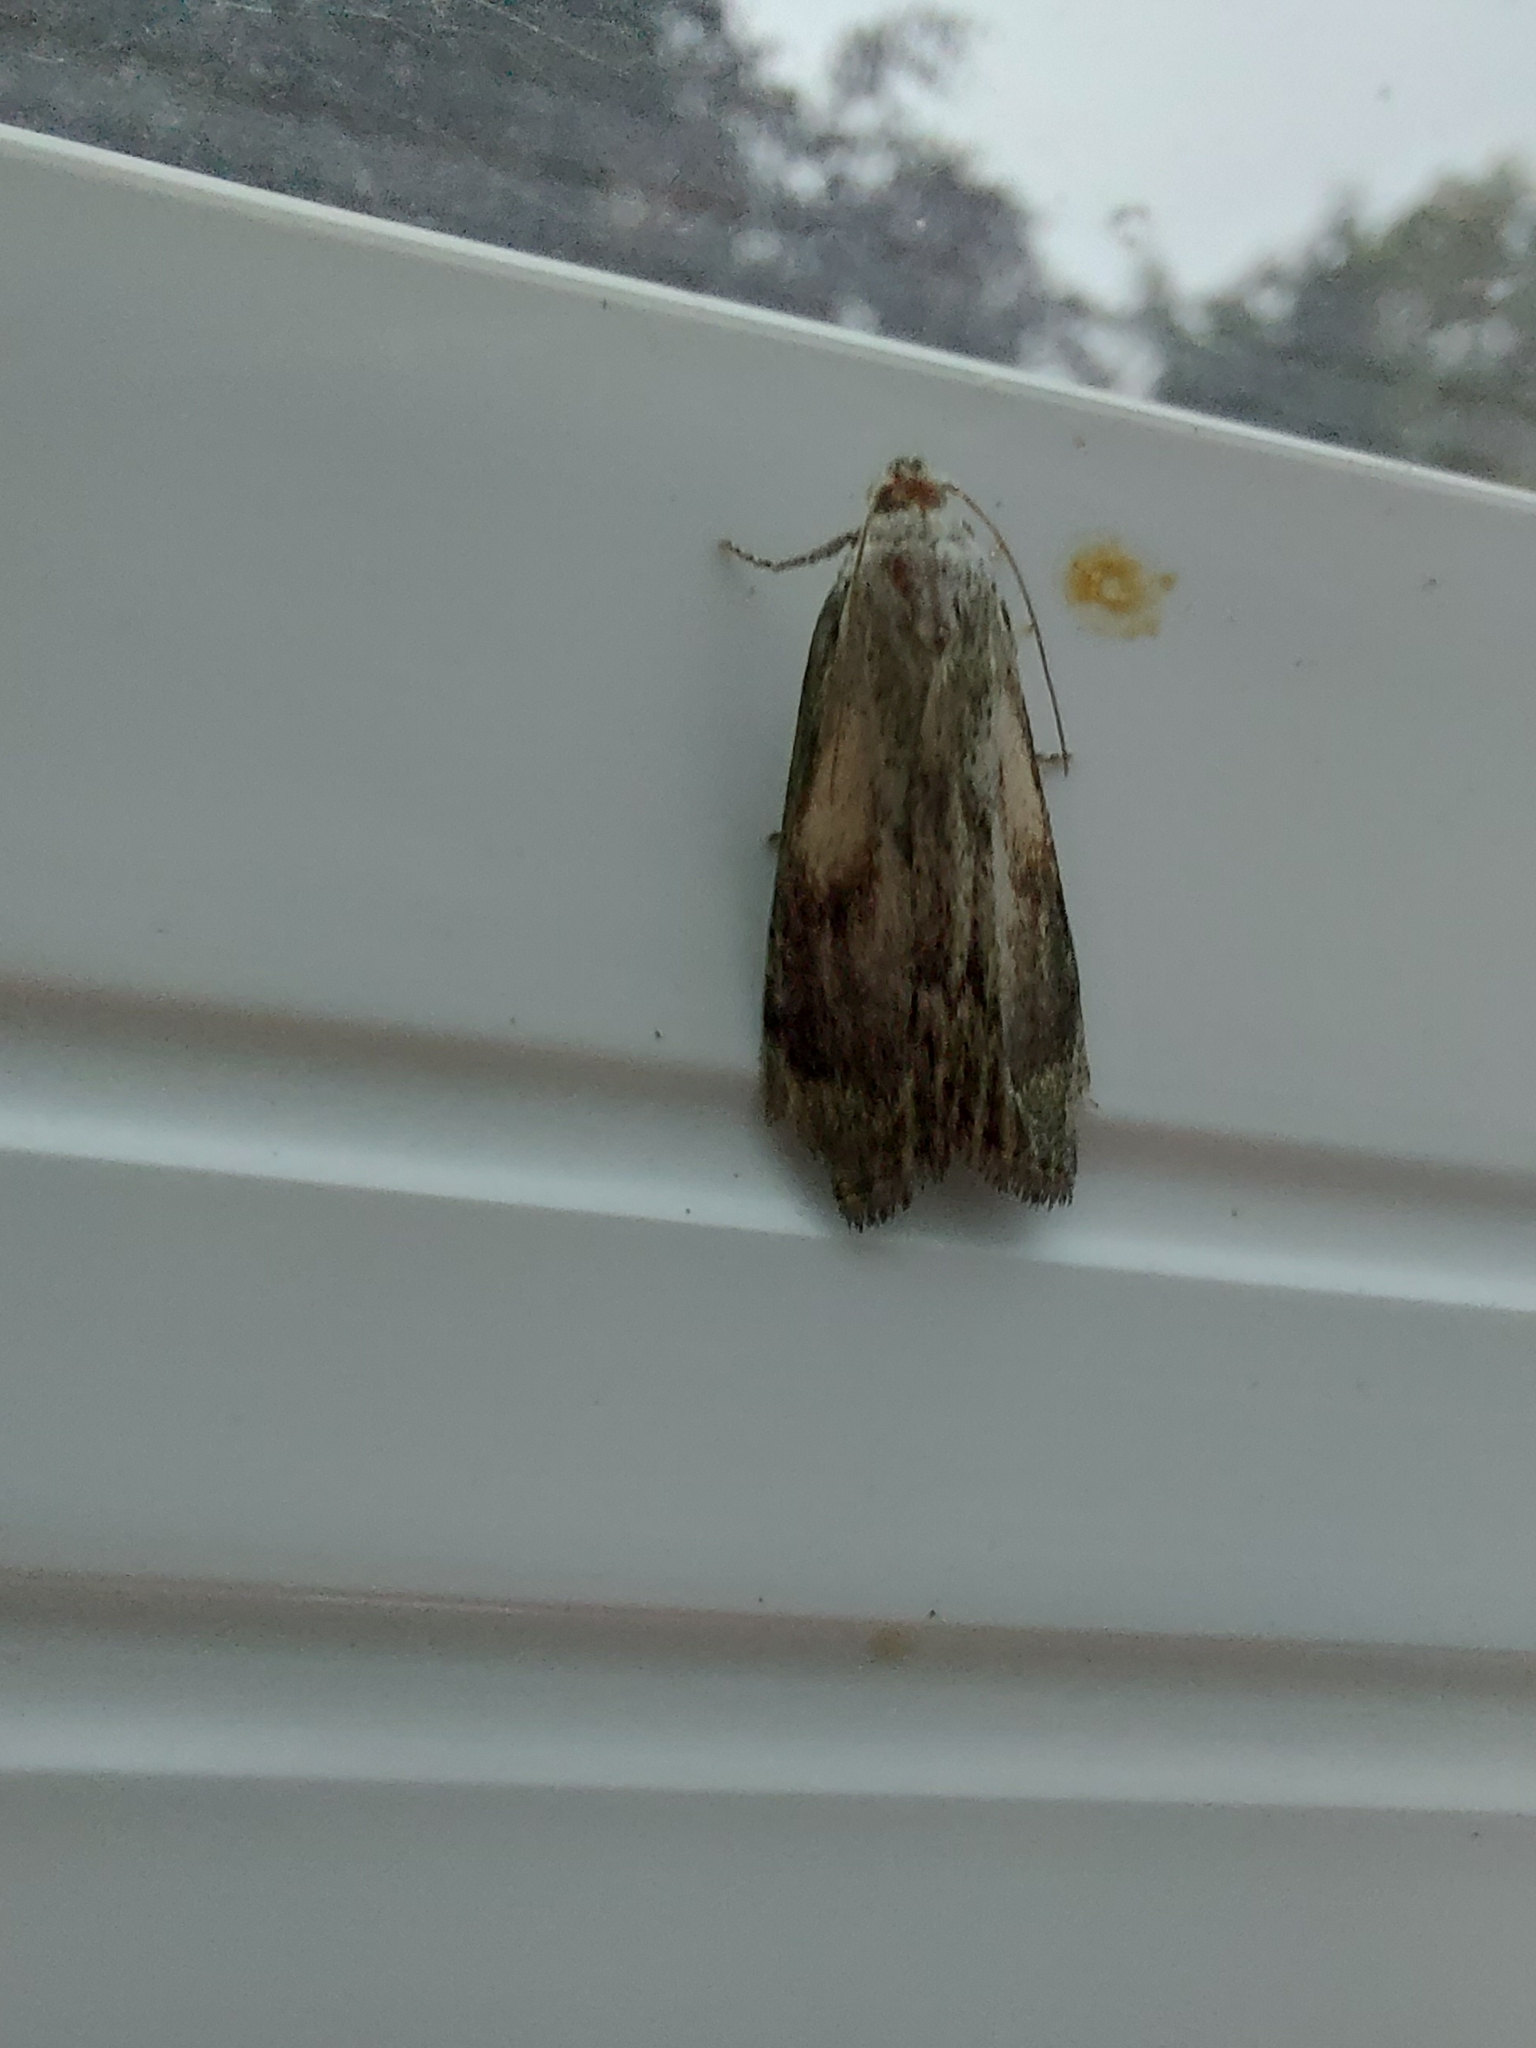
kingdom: Animalia
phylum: Arthropoda
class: Insecta
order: Lepidoptera
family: Pyralidae
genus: Aphomia
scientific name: Aphomia sociella
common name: Bee moth
